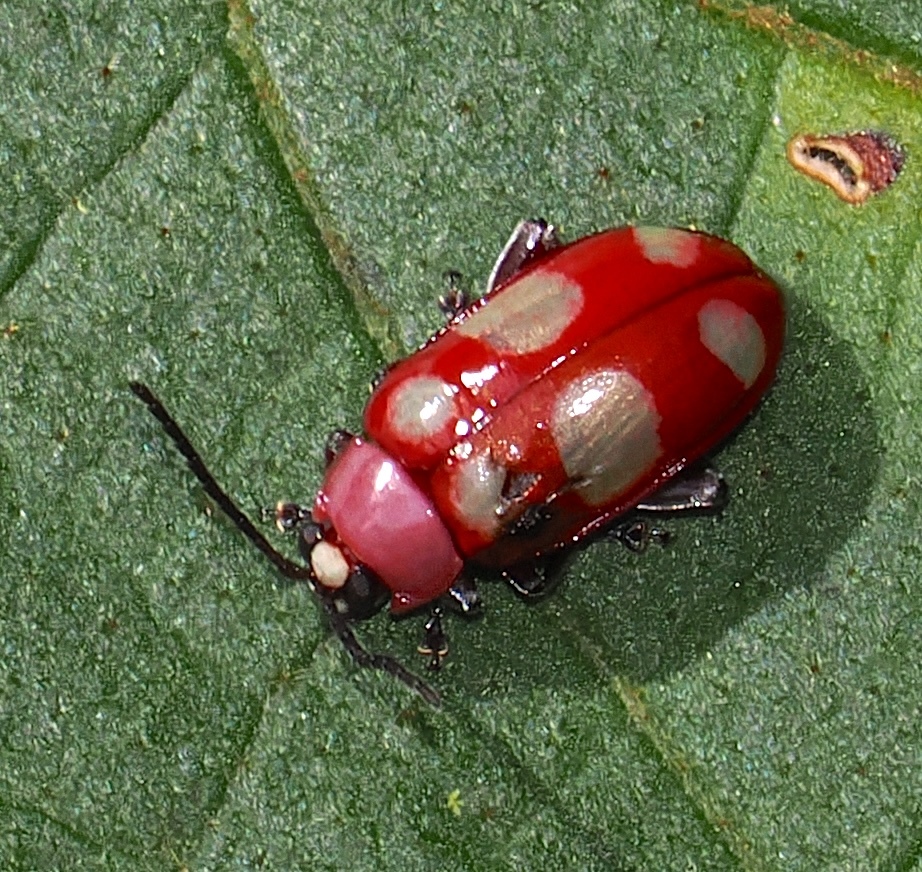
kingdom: Animalia
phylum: Arthropoda
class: Insecta
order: Coleoptera
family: Chrysomelidae
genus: Omophoita
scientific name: Omophoita sexnotata
